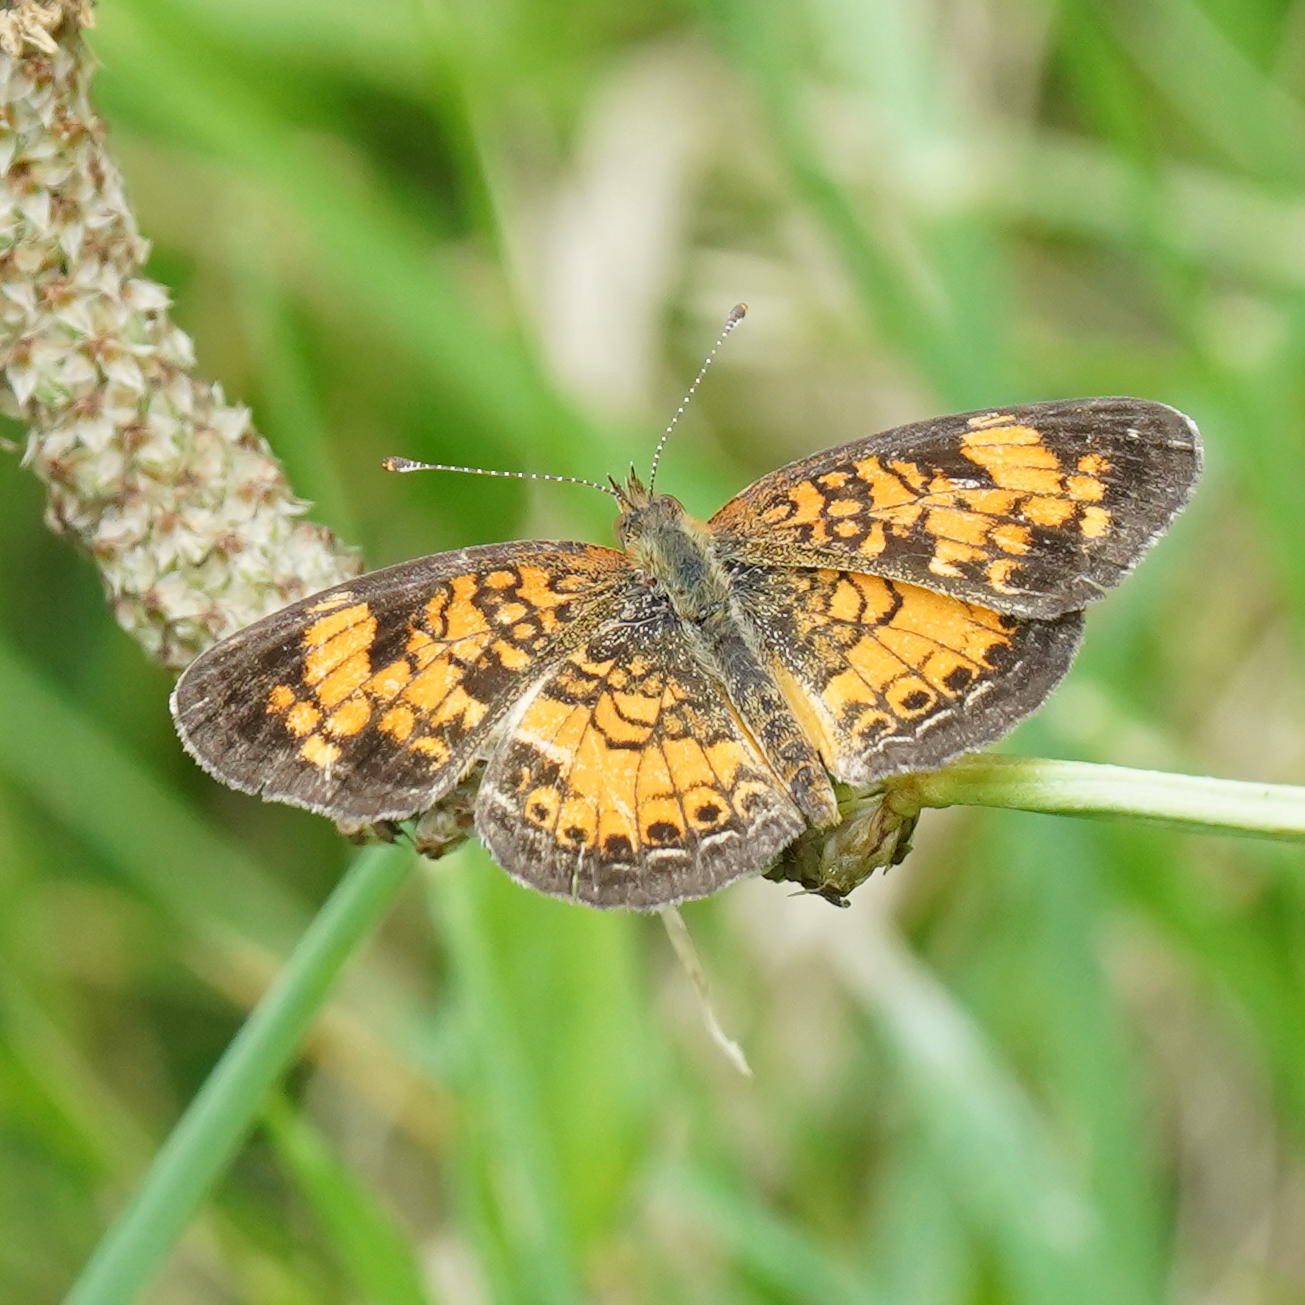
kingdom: Animalia
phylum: Arthropoda
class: Insecta
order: Lepidoptera
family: Nymphalidae
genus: Phyciodes
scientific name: Phyciodes tharos
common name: Pearl crescent
